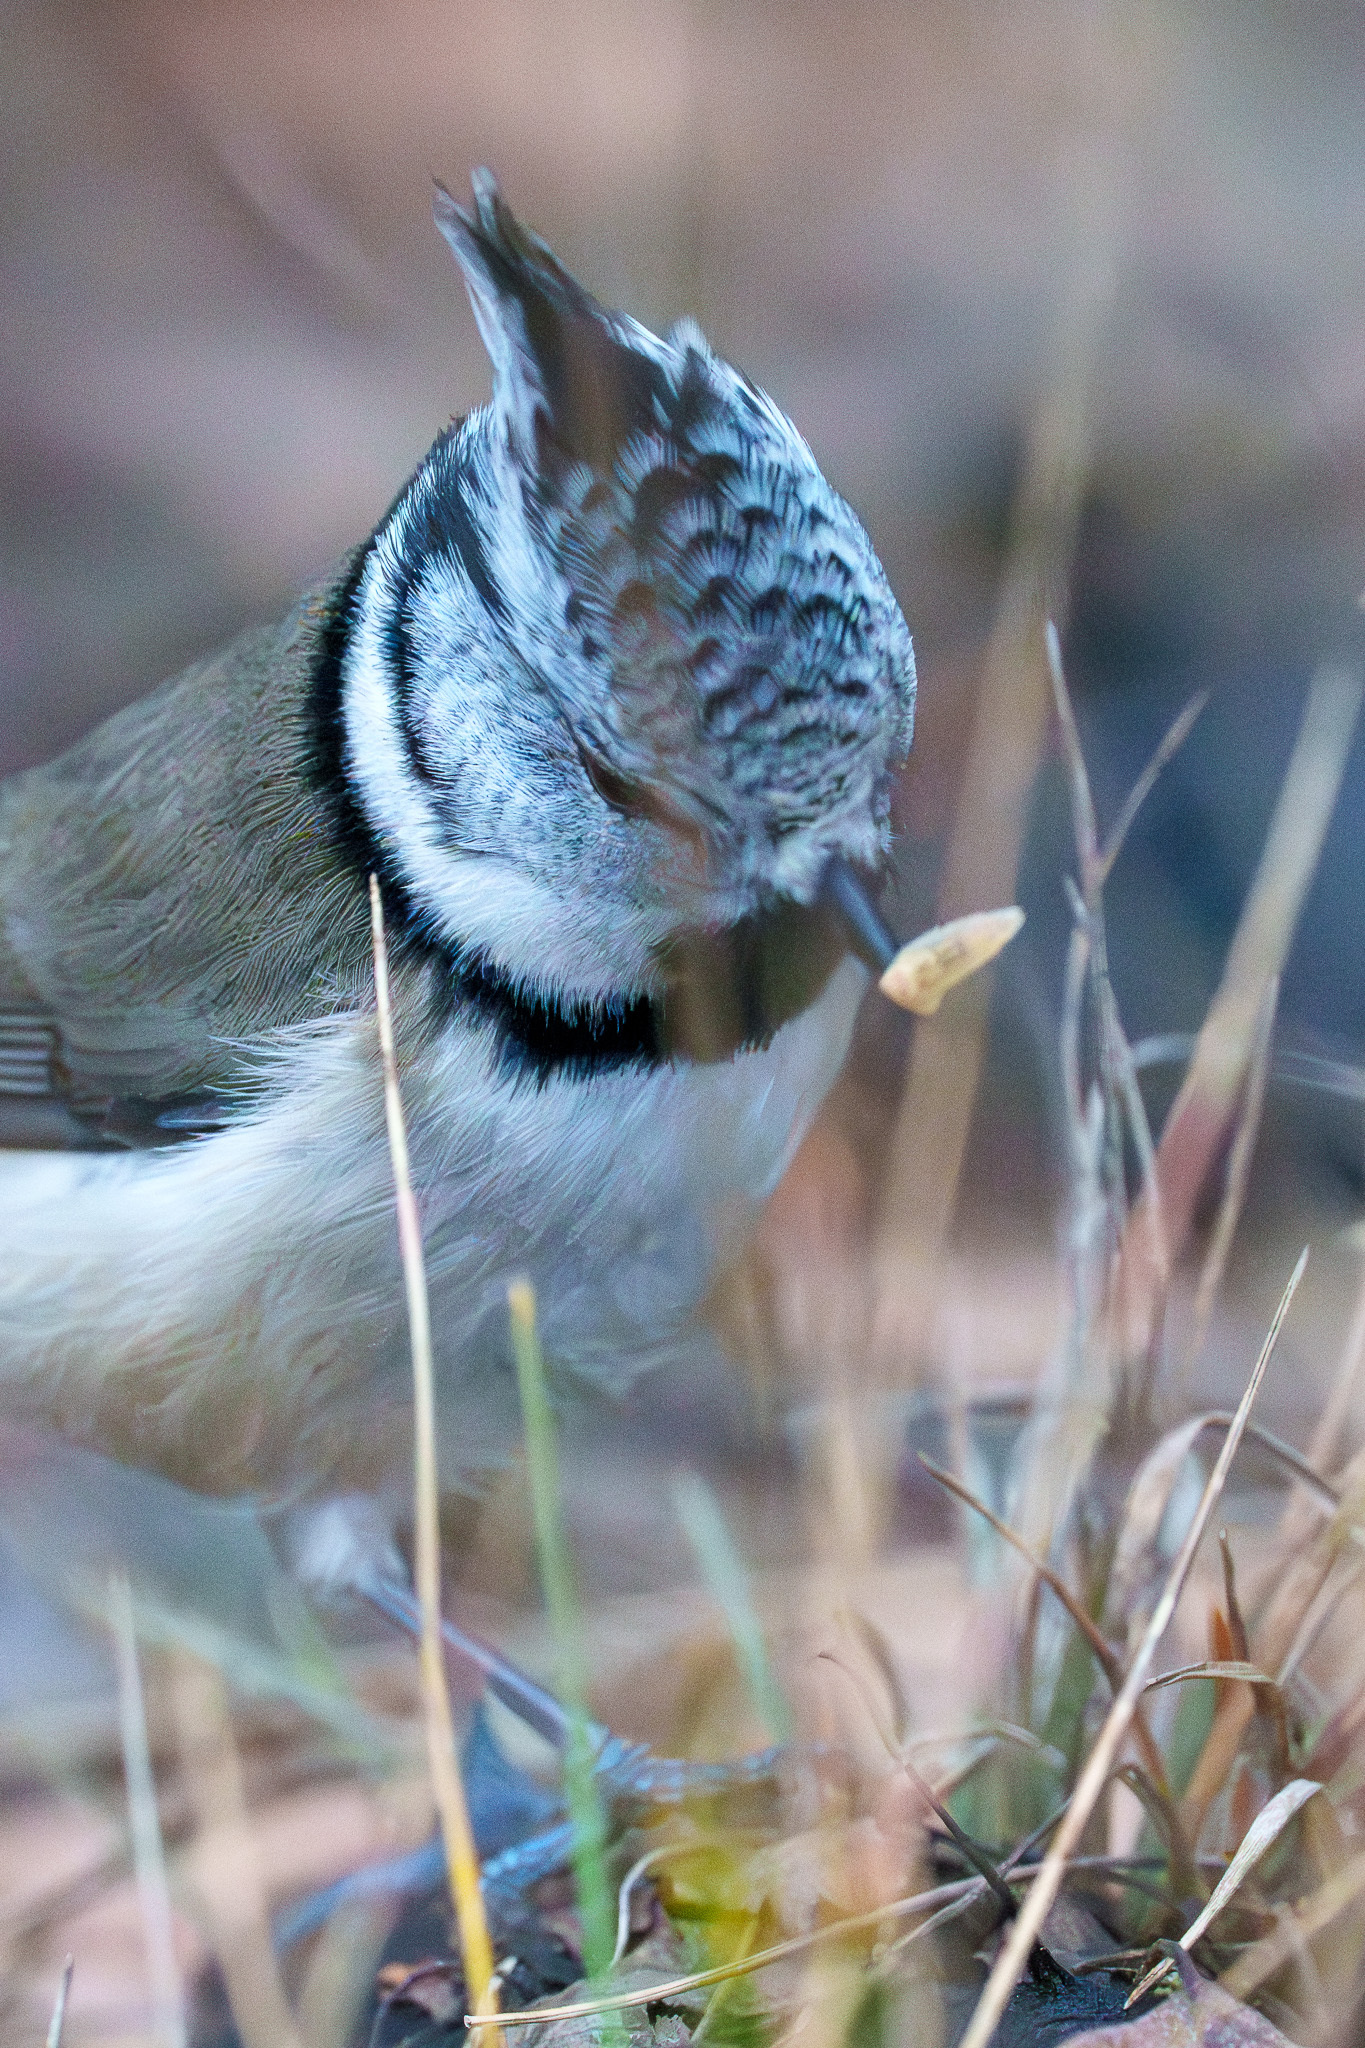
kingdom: Animalia
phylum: Chordata
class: Aves
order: Passeriformes
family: Paridae
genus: Lophophanes
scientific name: Lophophanes cristatus
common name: European crested tit
